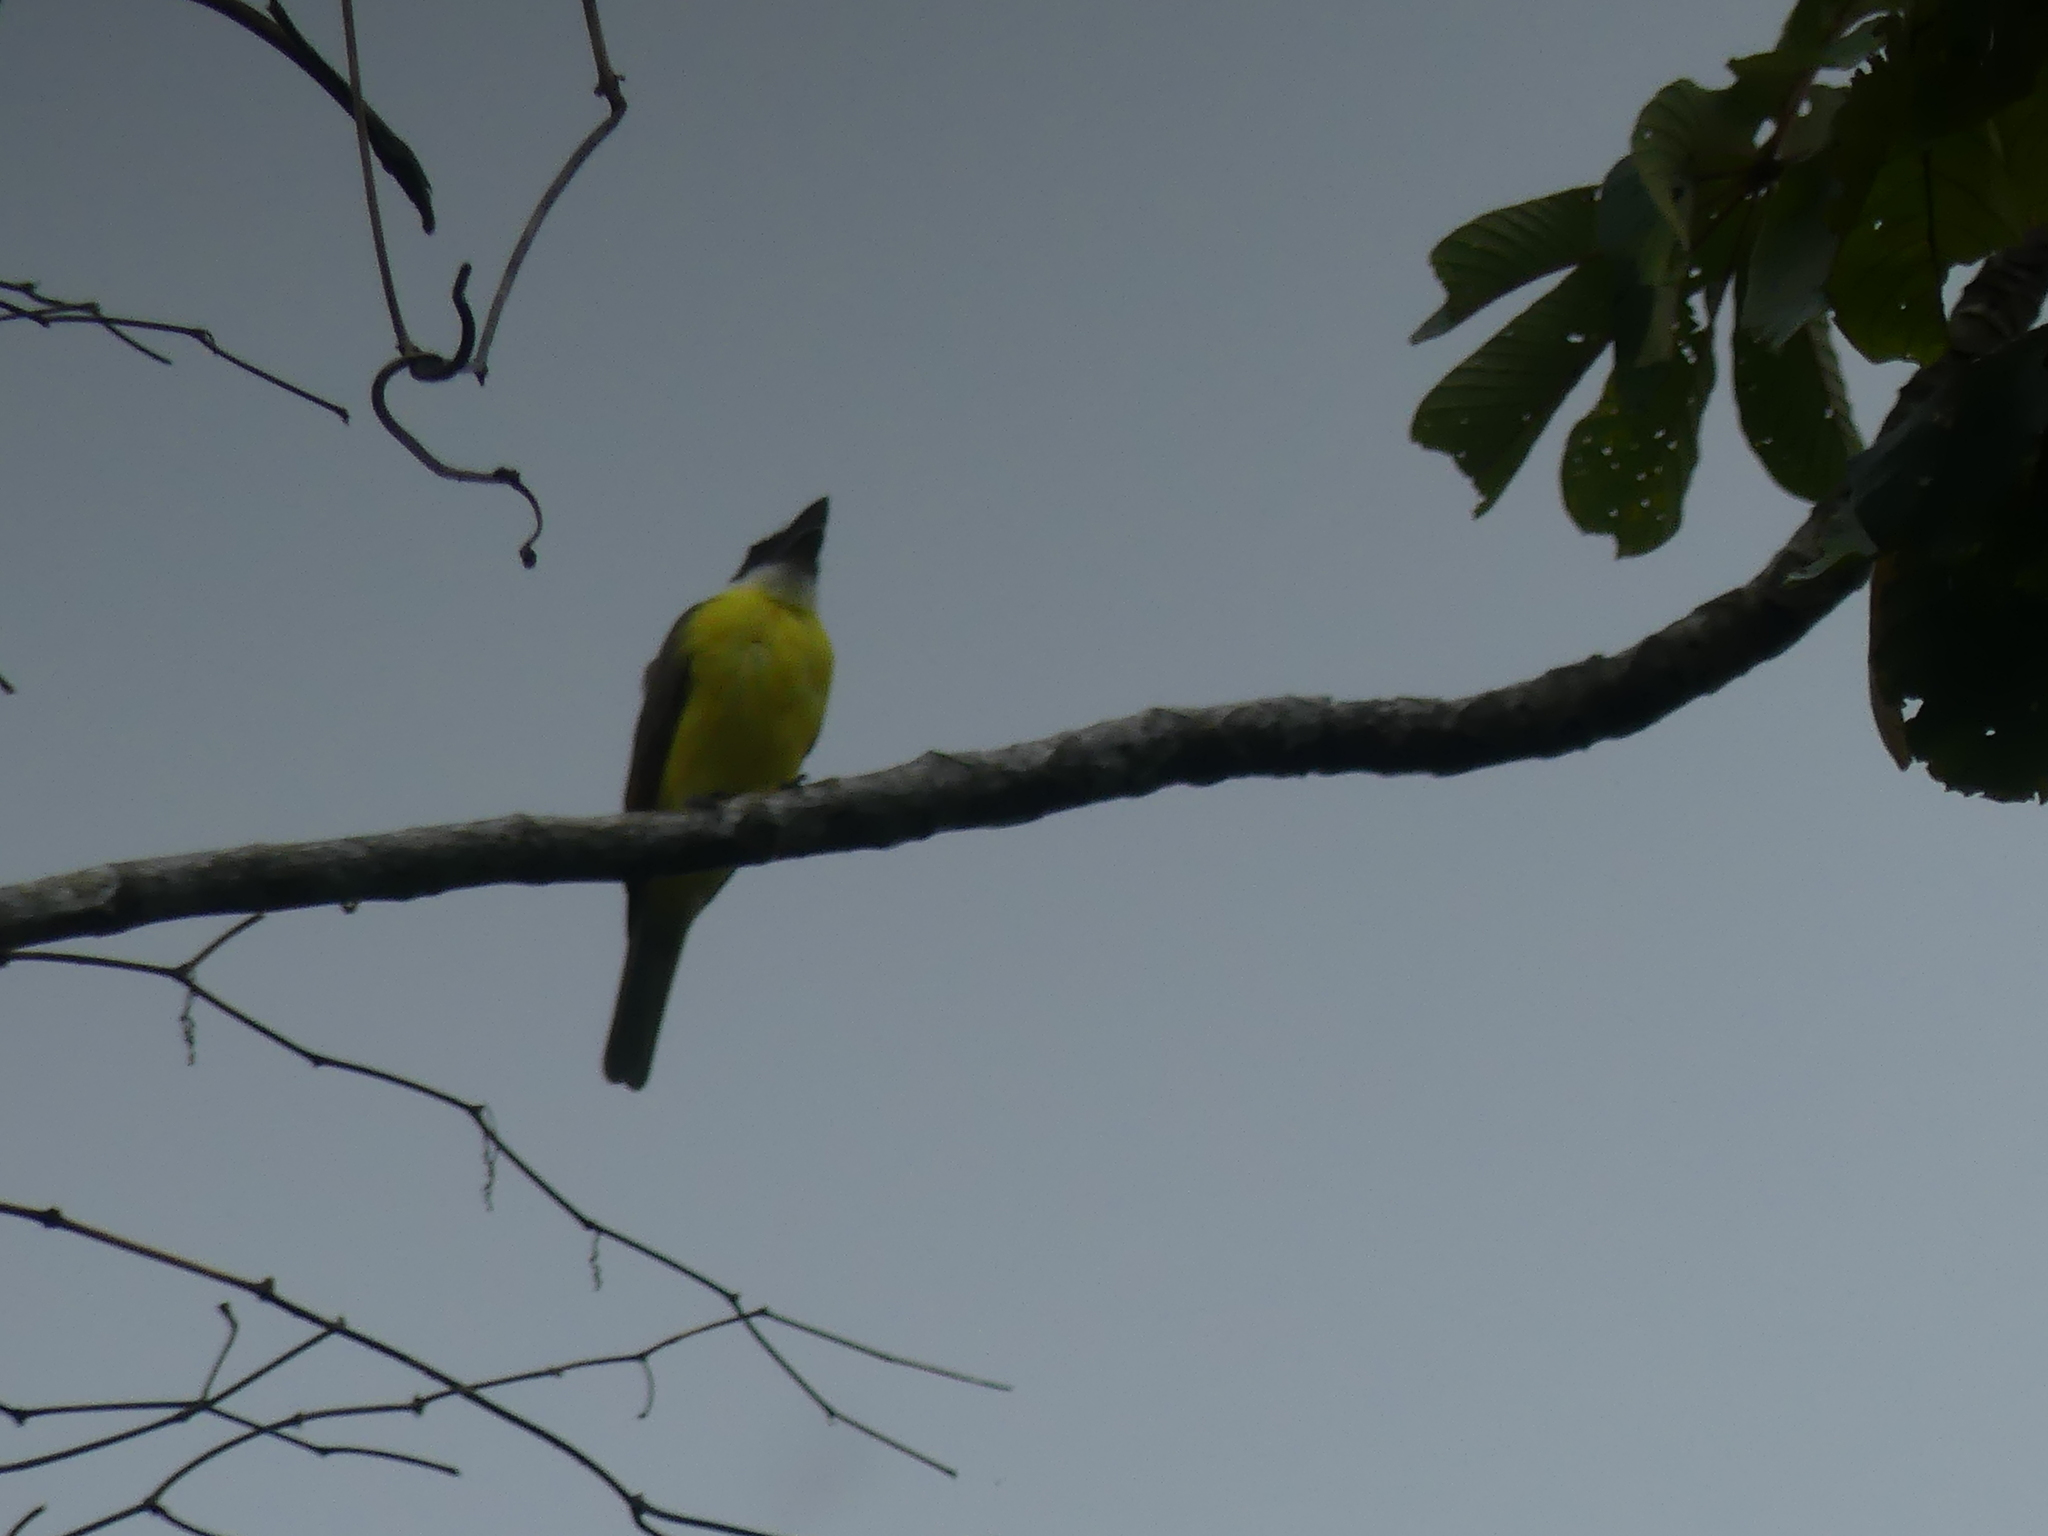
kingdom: Animalia
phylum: Chordata
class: Aves
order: Passeriformes
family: Tyrannidae
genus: Pitangus
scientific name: Pitangus sulphuratus
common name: Great kiskadee
